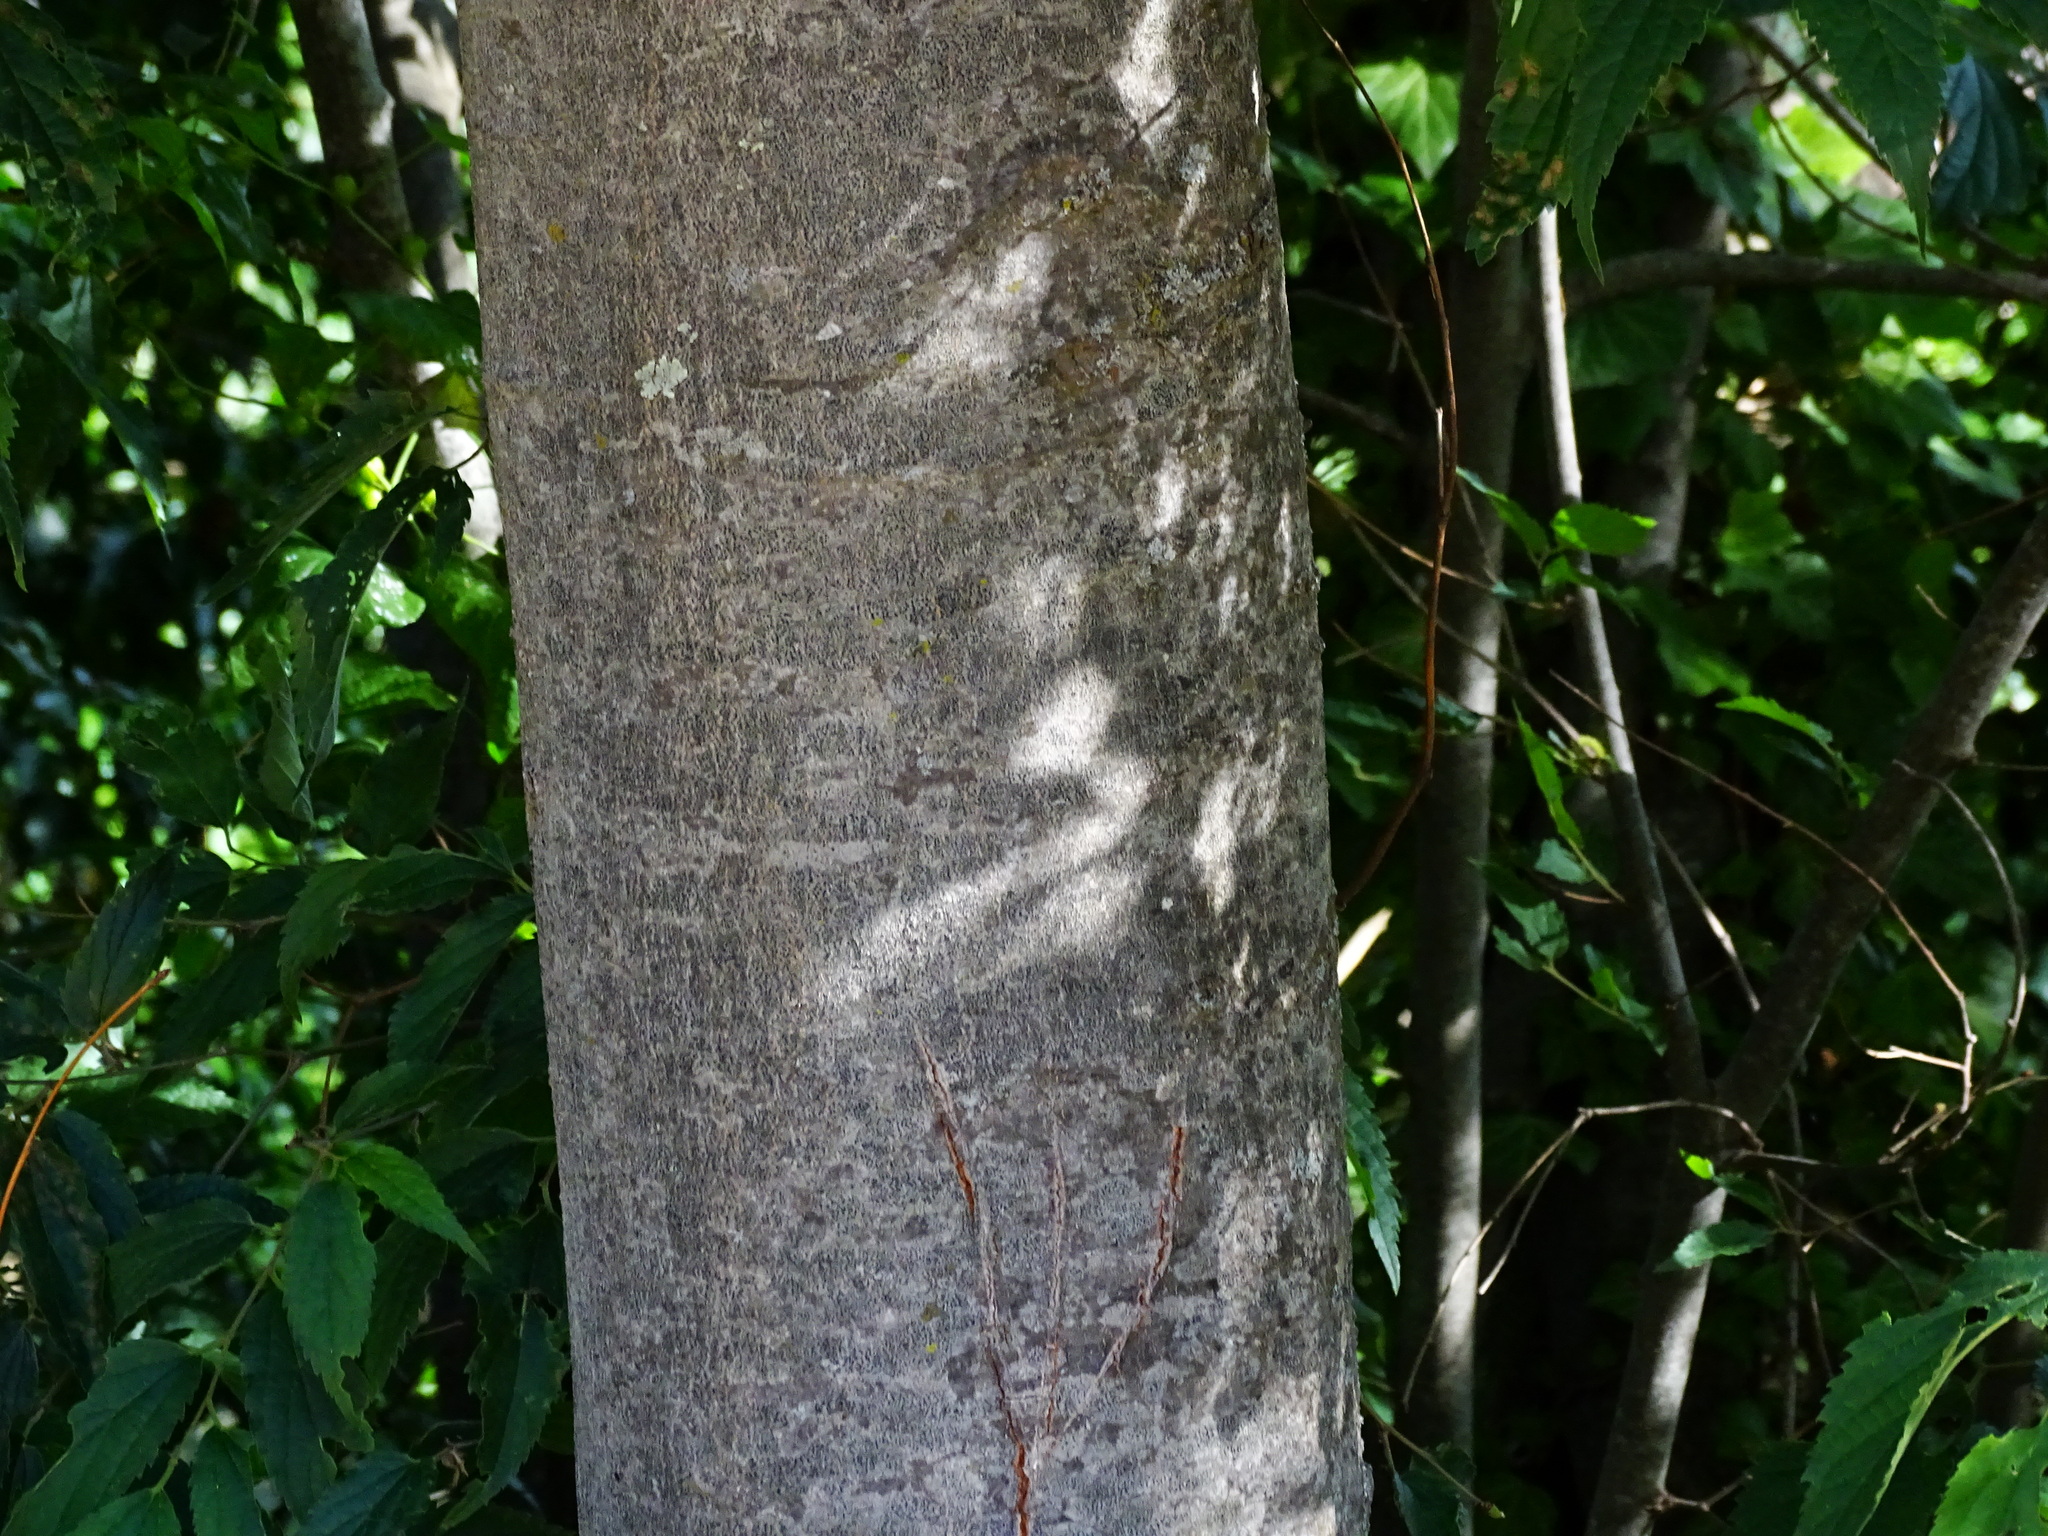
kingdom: Plantae
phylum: Tracheophyta
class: Magnoliopsida
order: Rosales
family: Cannabaceae
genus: Celtis
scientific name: Celtis australis
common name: European hackberry
